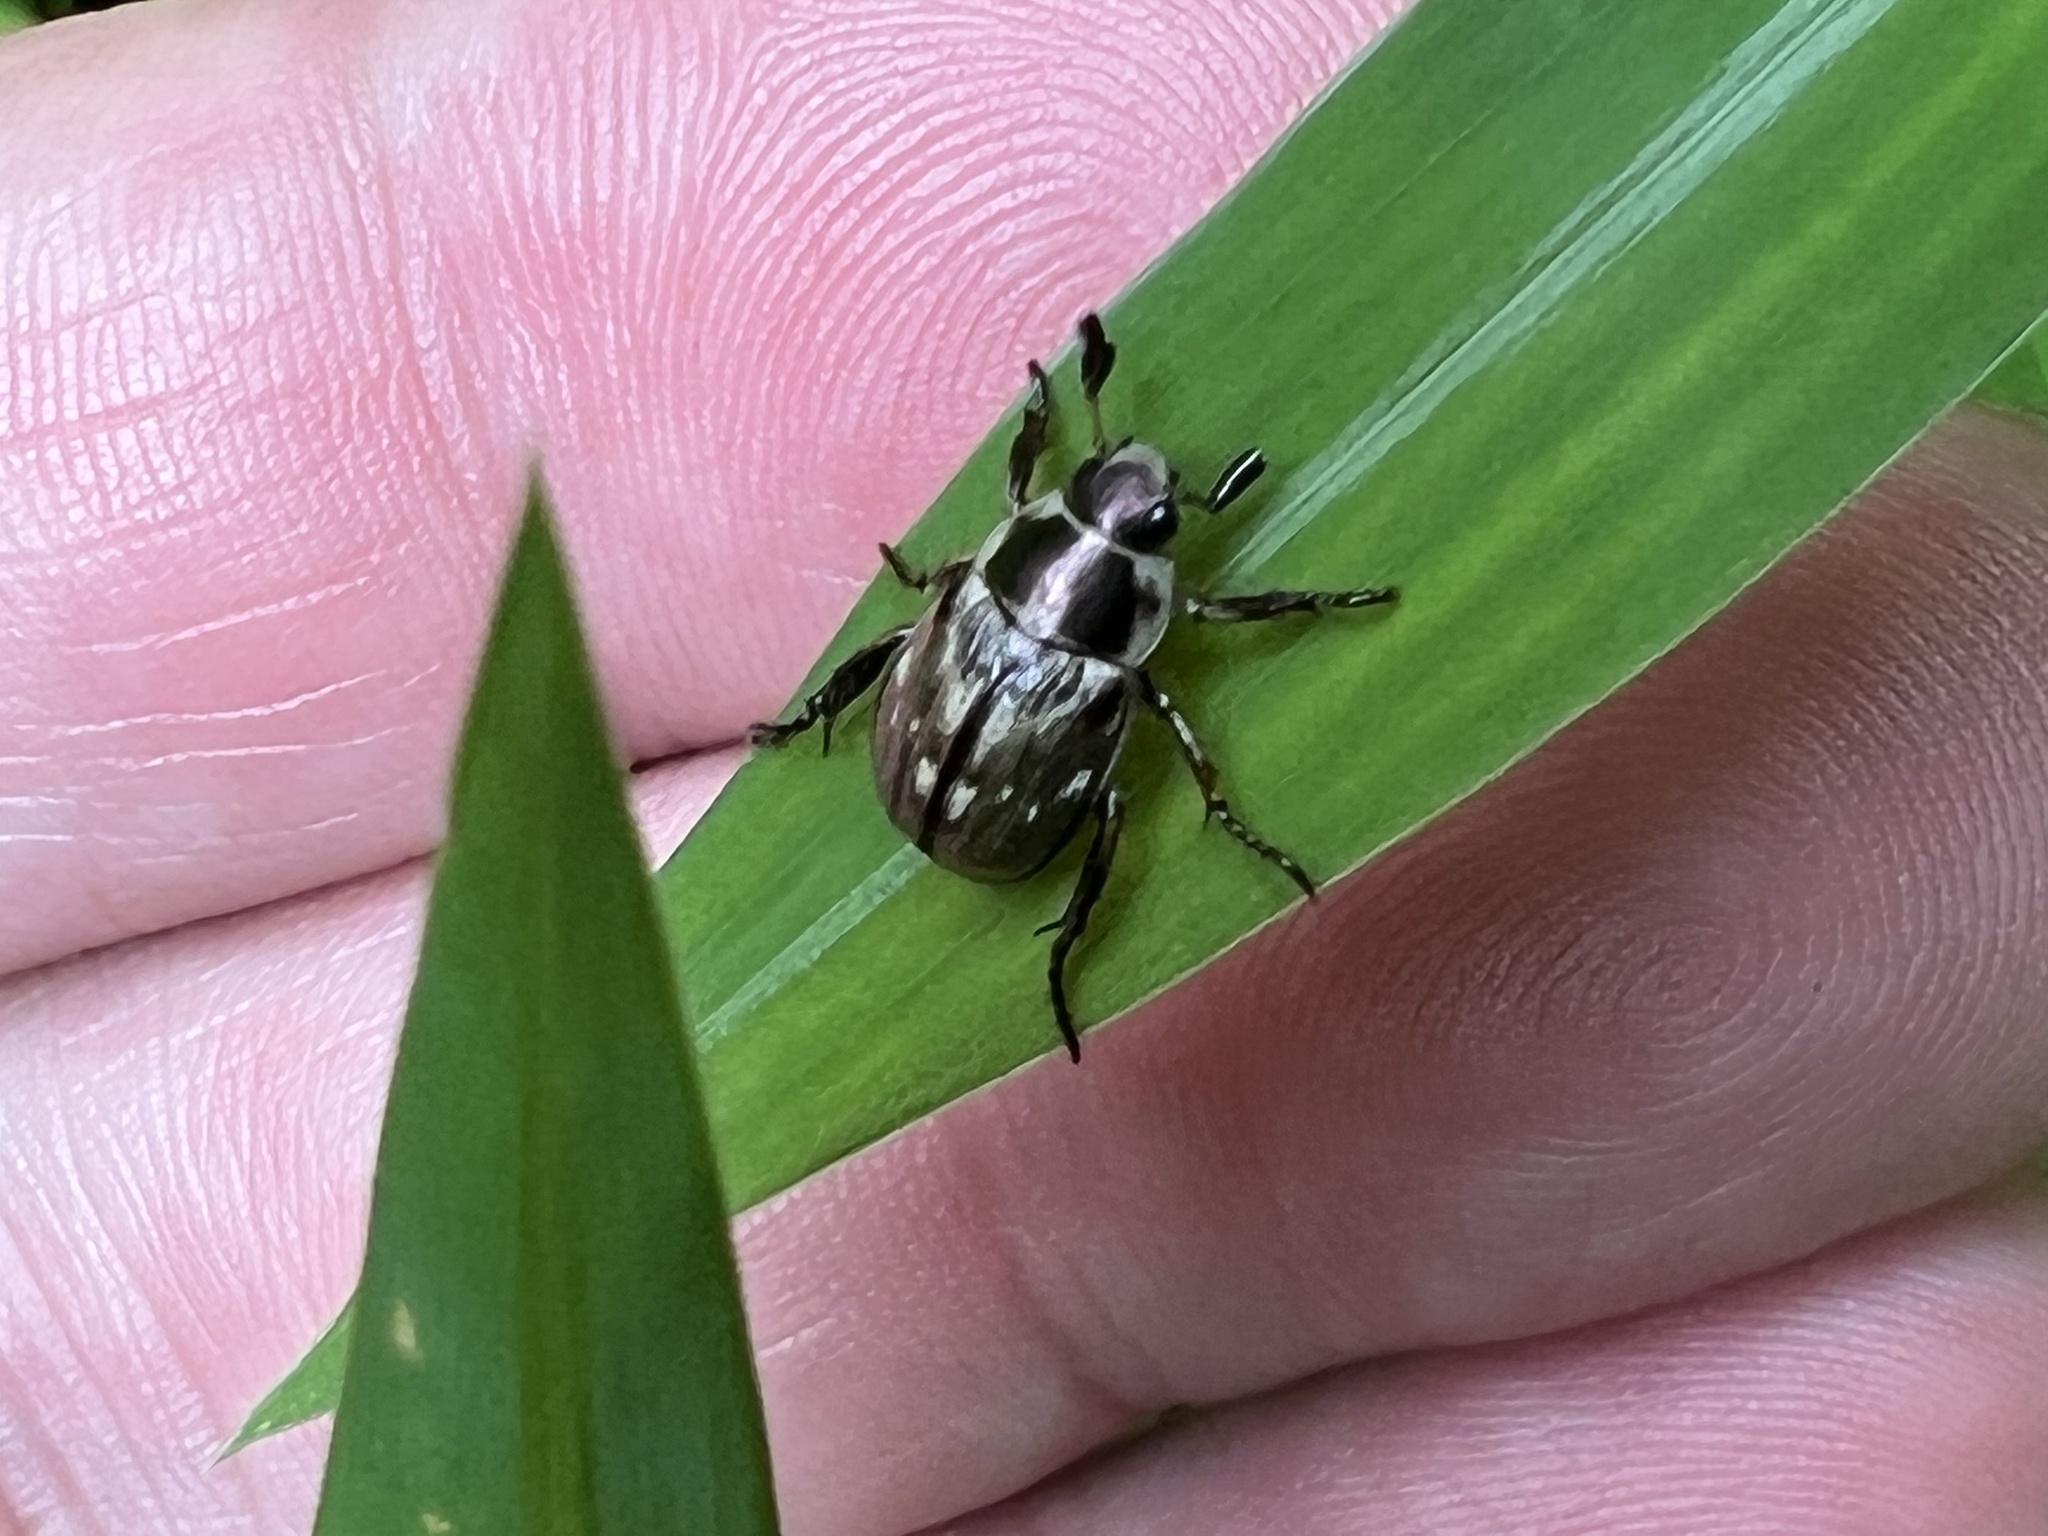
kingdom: Animalia
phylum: Arthropoda
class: Insecta
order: Coleoptera
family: Scarabaeidae
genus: Exomala
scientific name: Exomala orientalis
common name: Oriental beetle
